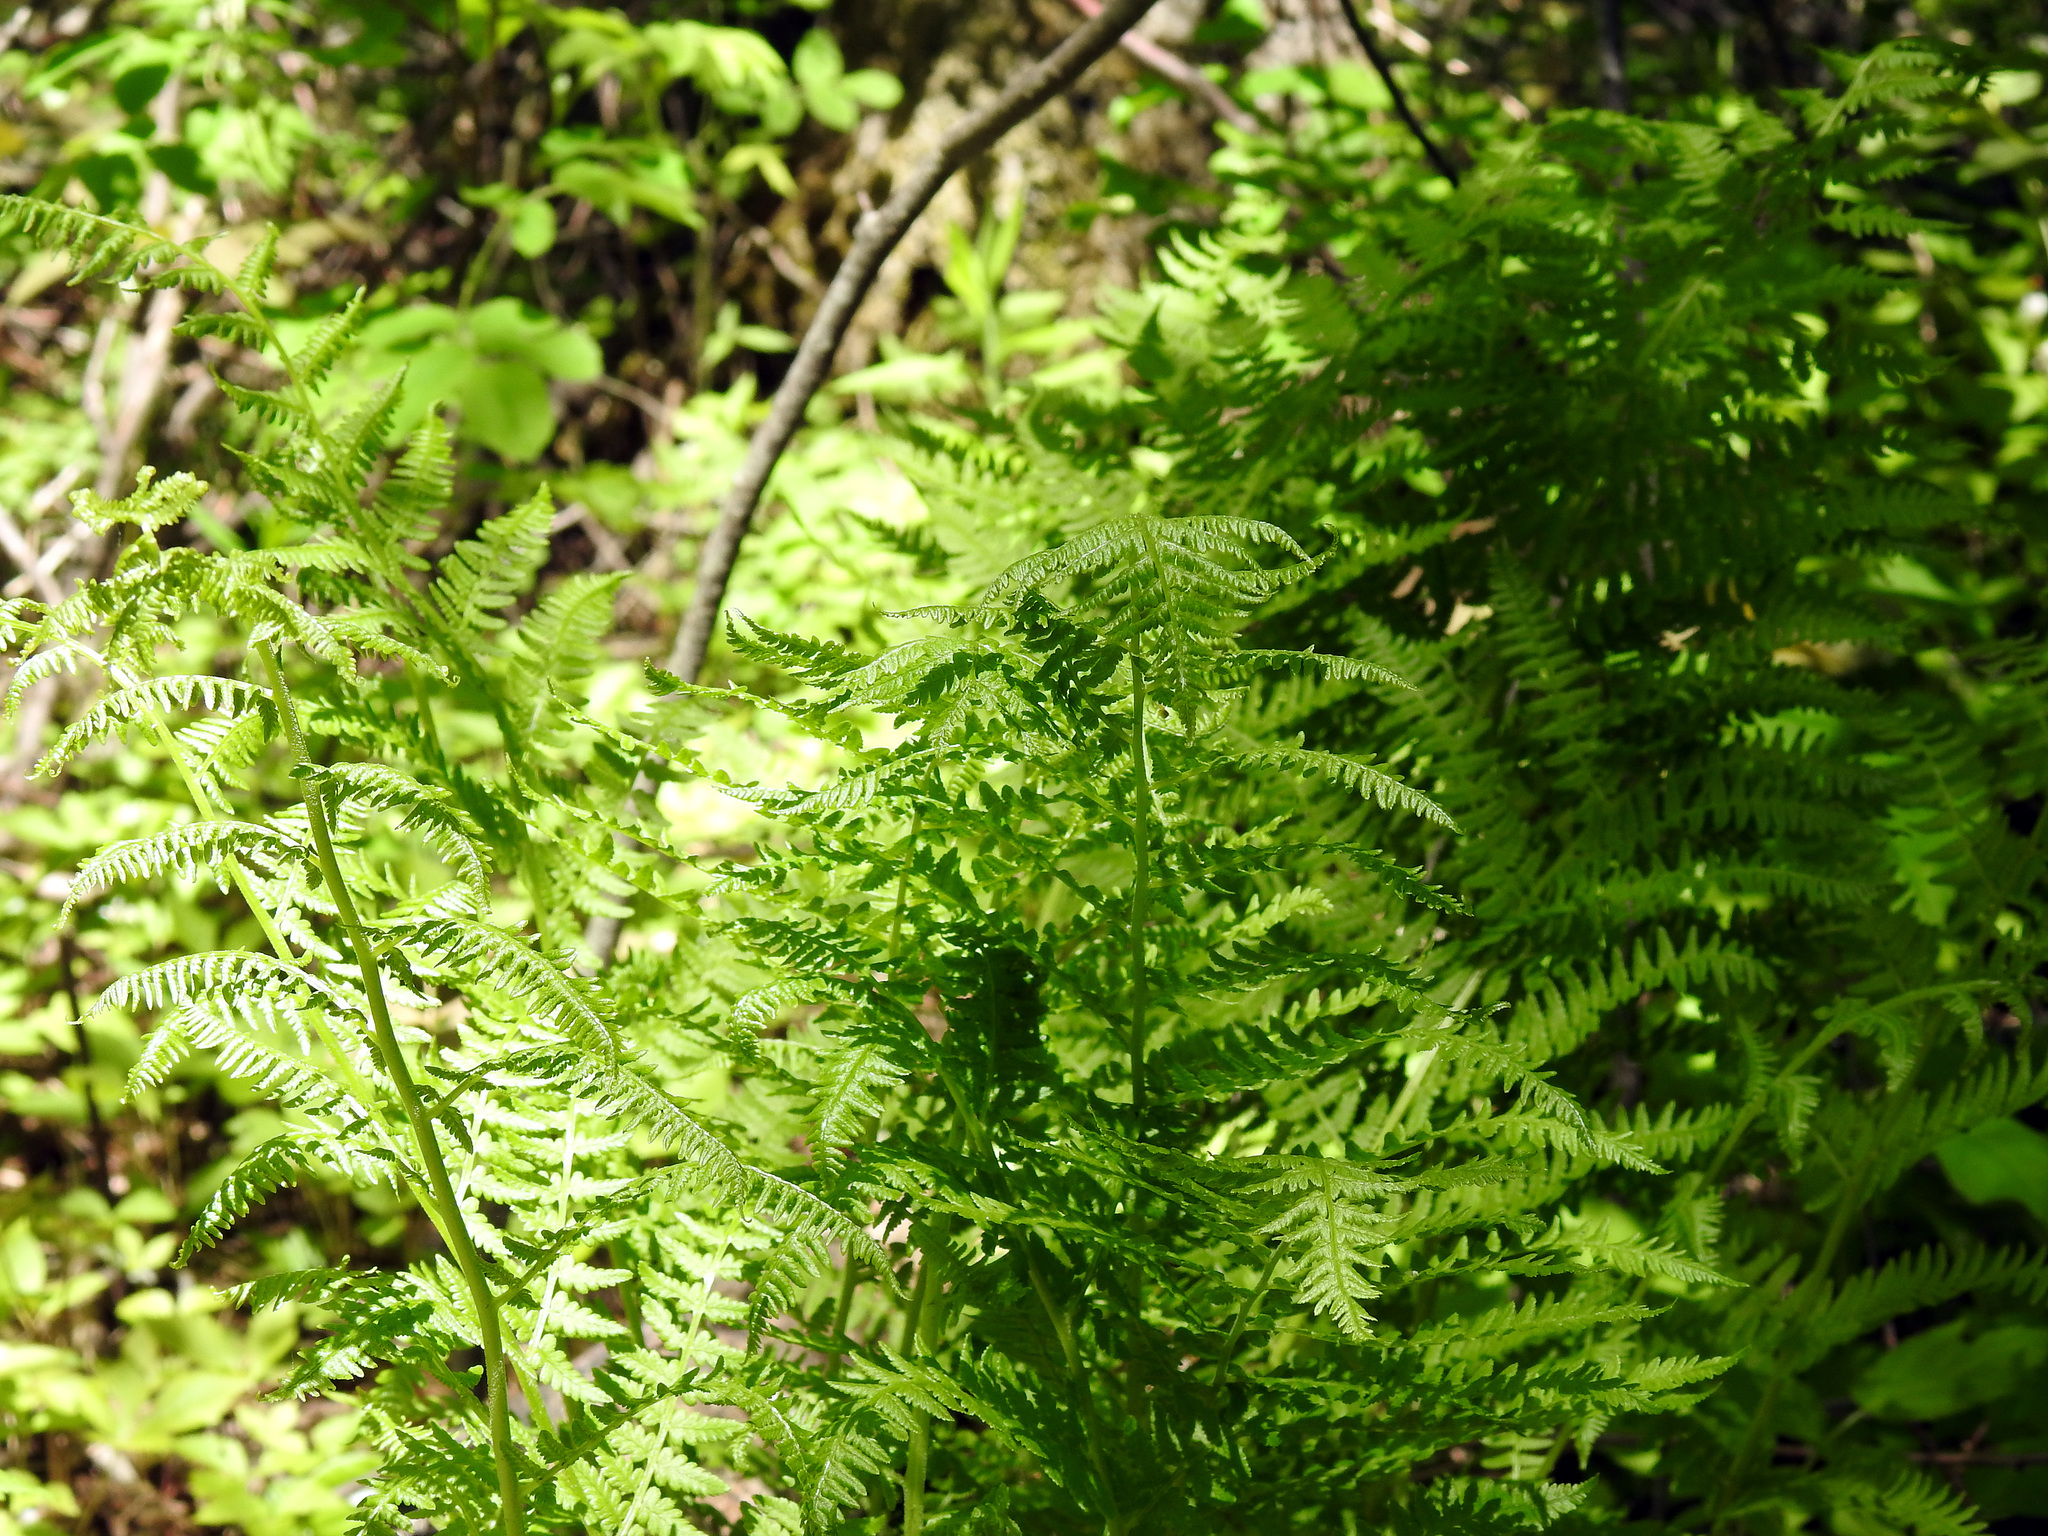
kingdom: Plantae
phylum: Tracheophyta
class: Polypodiopsida
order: Polypodiales
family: Athyriaceae
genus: Athyrium
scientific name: Athyrium angustum
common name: Northern lady fern
